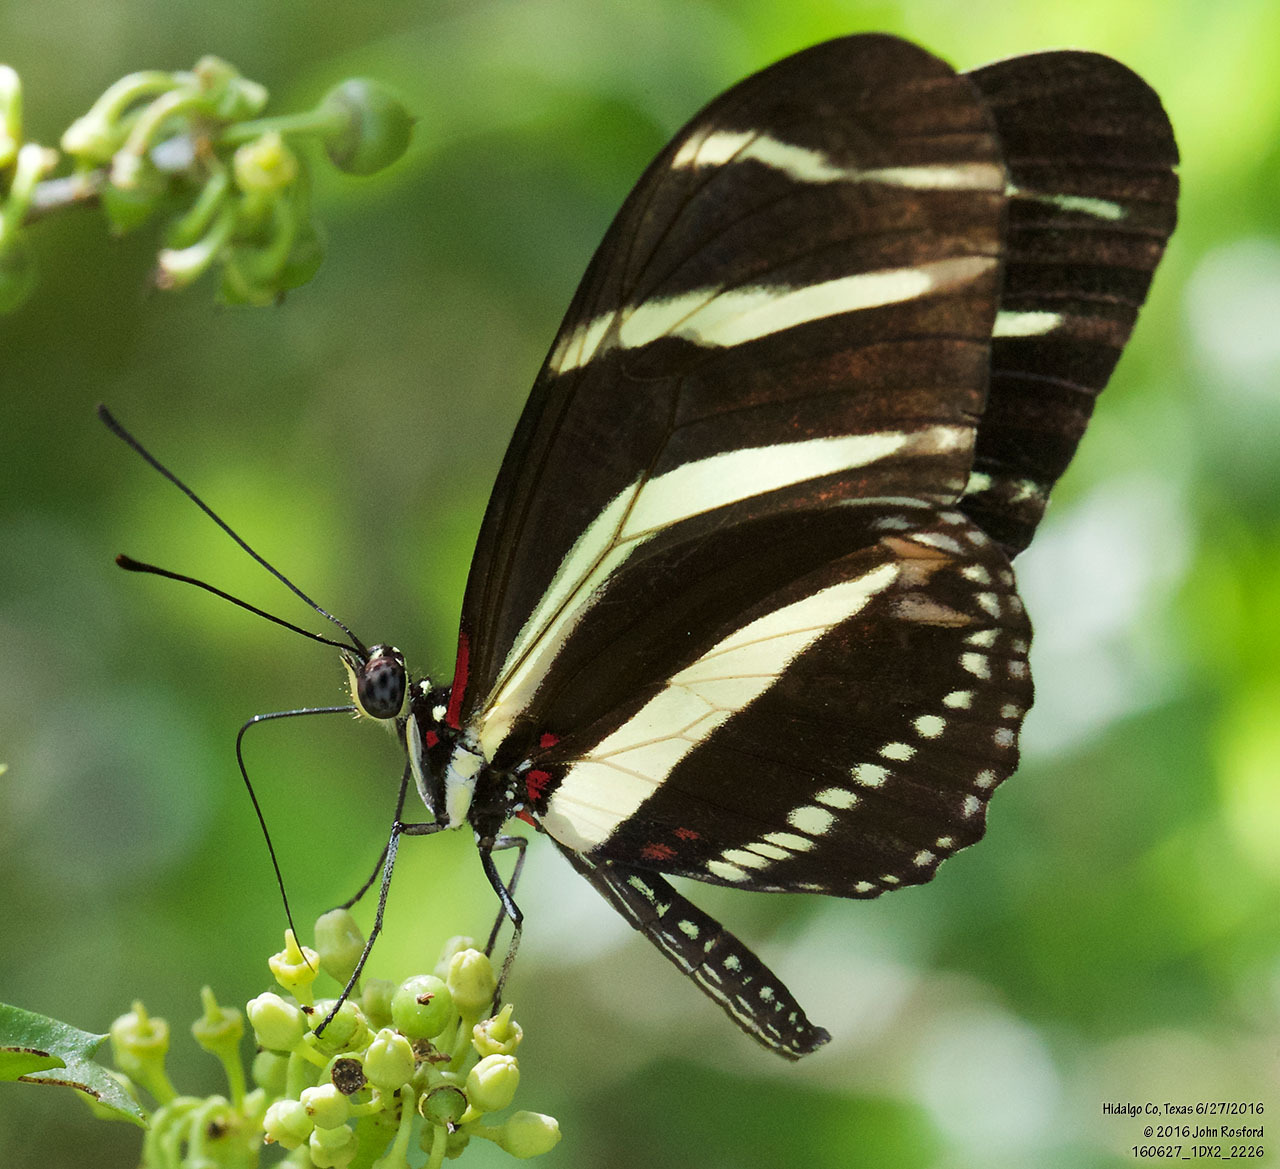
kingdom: Animalia
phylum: Arthropoda
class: Insecta
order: Lepidoptera
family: Nymphalidae
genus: Heliconius
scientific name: Heliconius charithonia
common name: Zebra long wing
